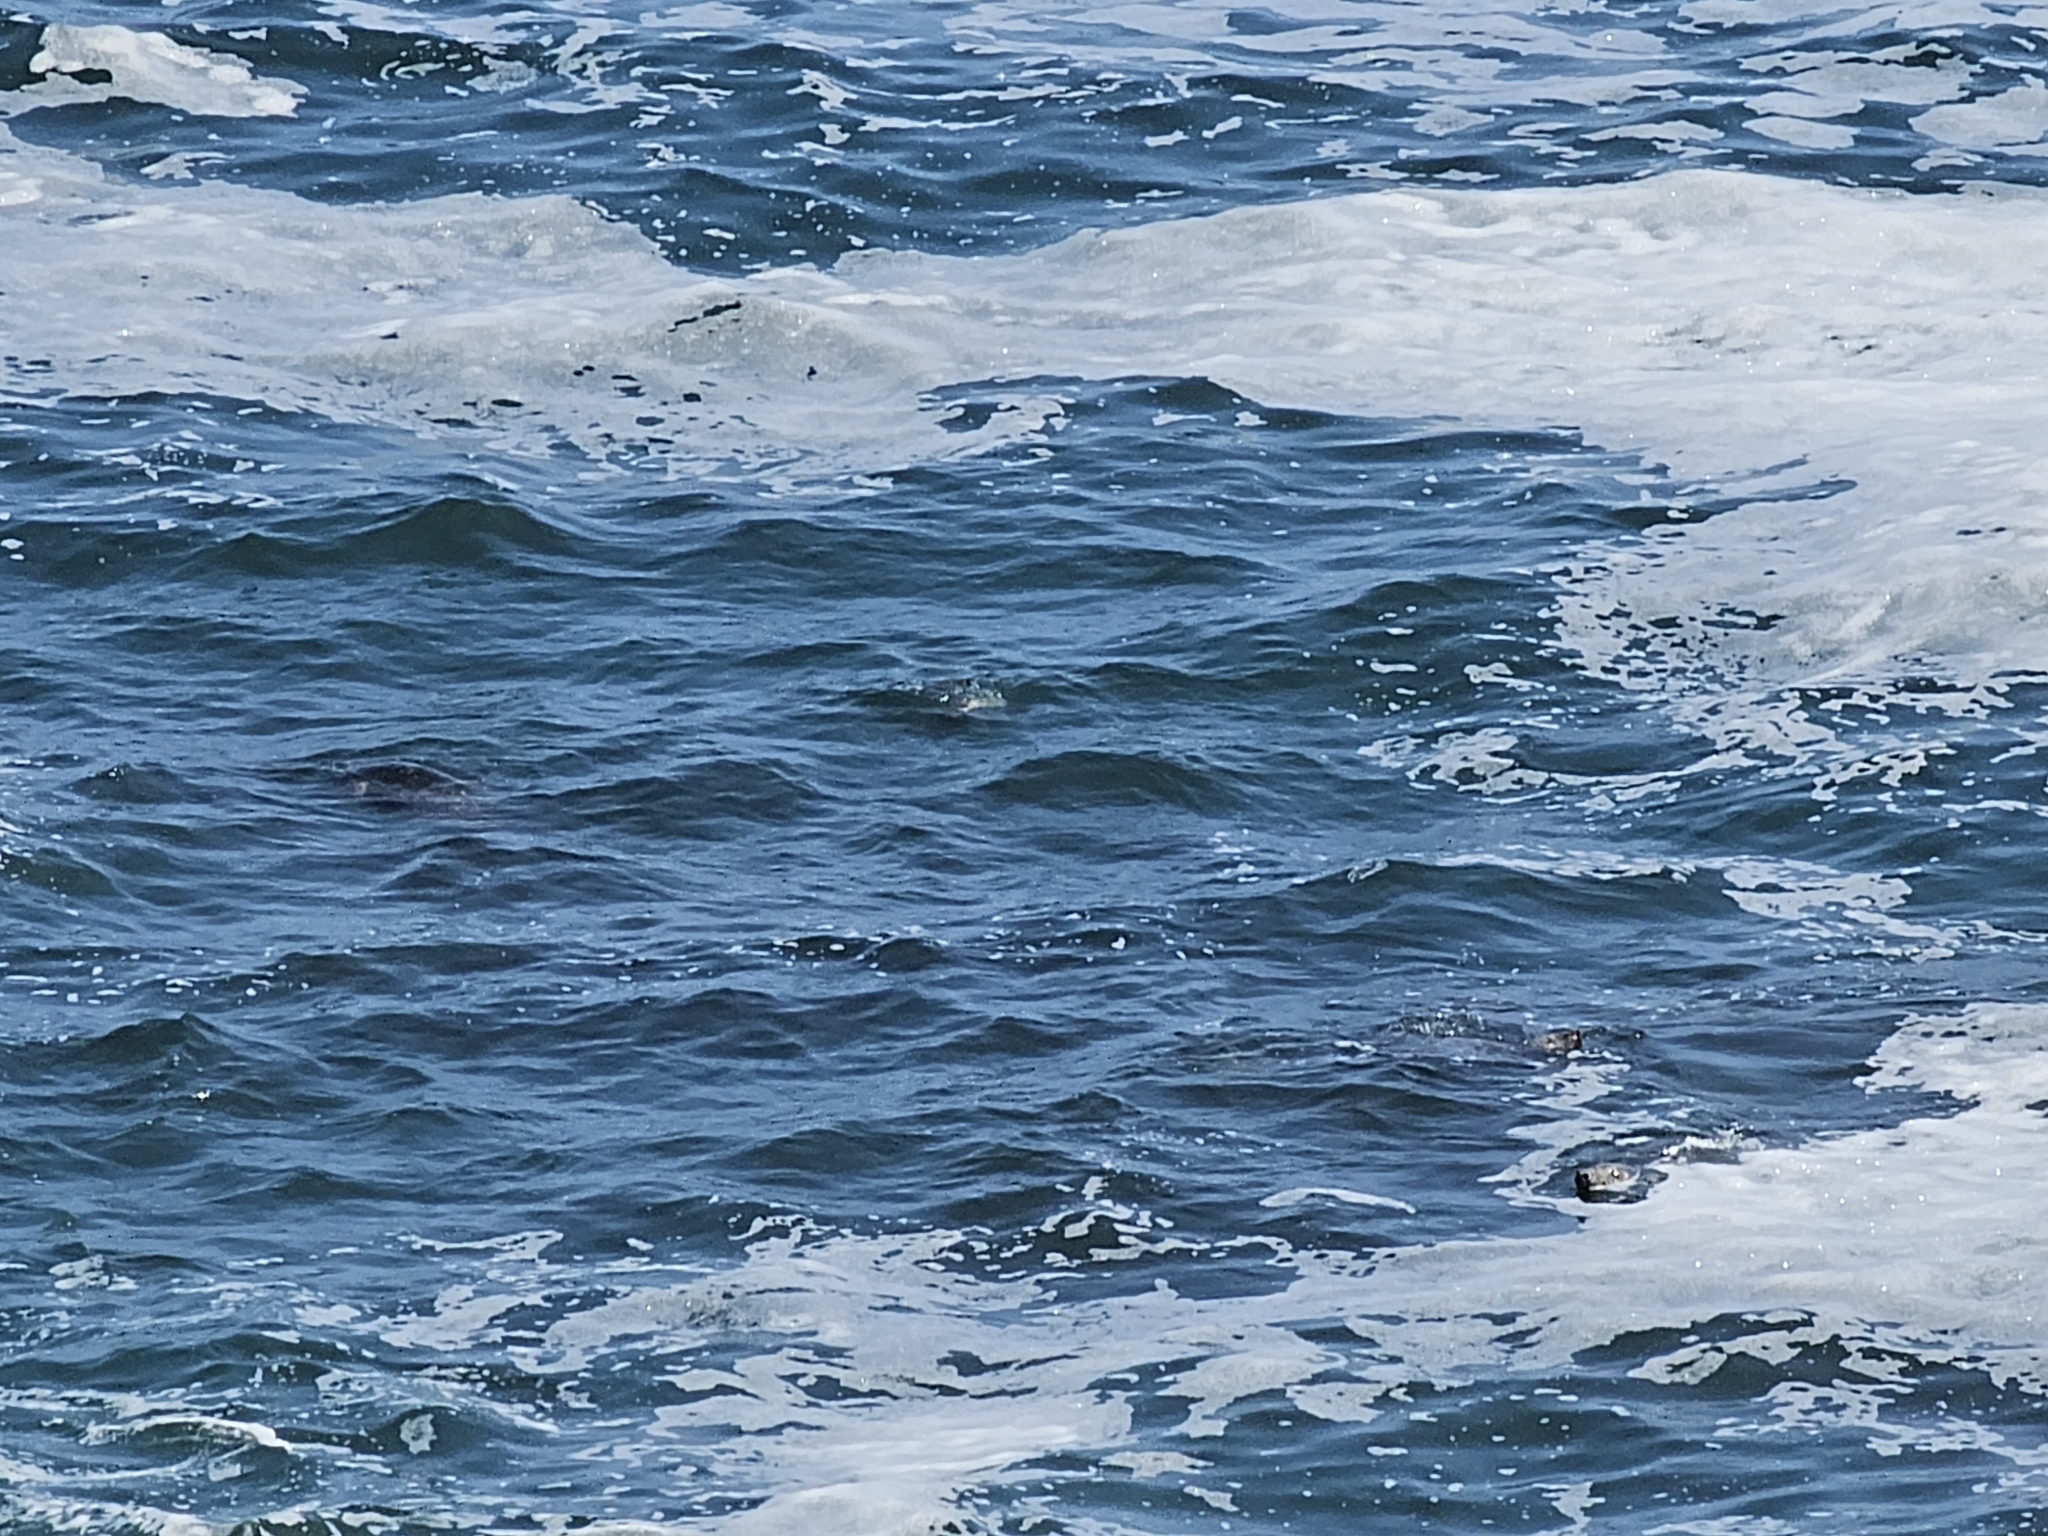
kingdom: Animalia
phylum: Chordata
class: Mammalia
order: Carnivora
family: Phocidae
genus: Halichoerus
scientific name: Halichoerus grypus
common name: Grey seal
